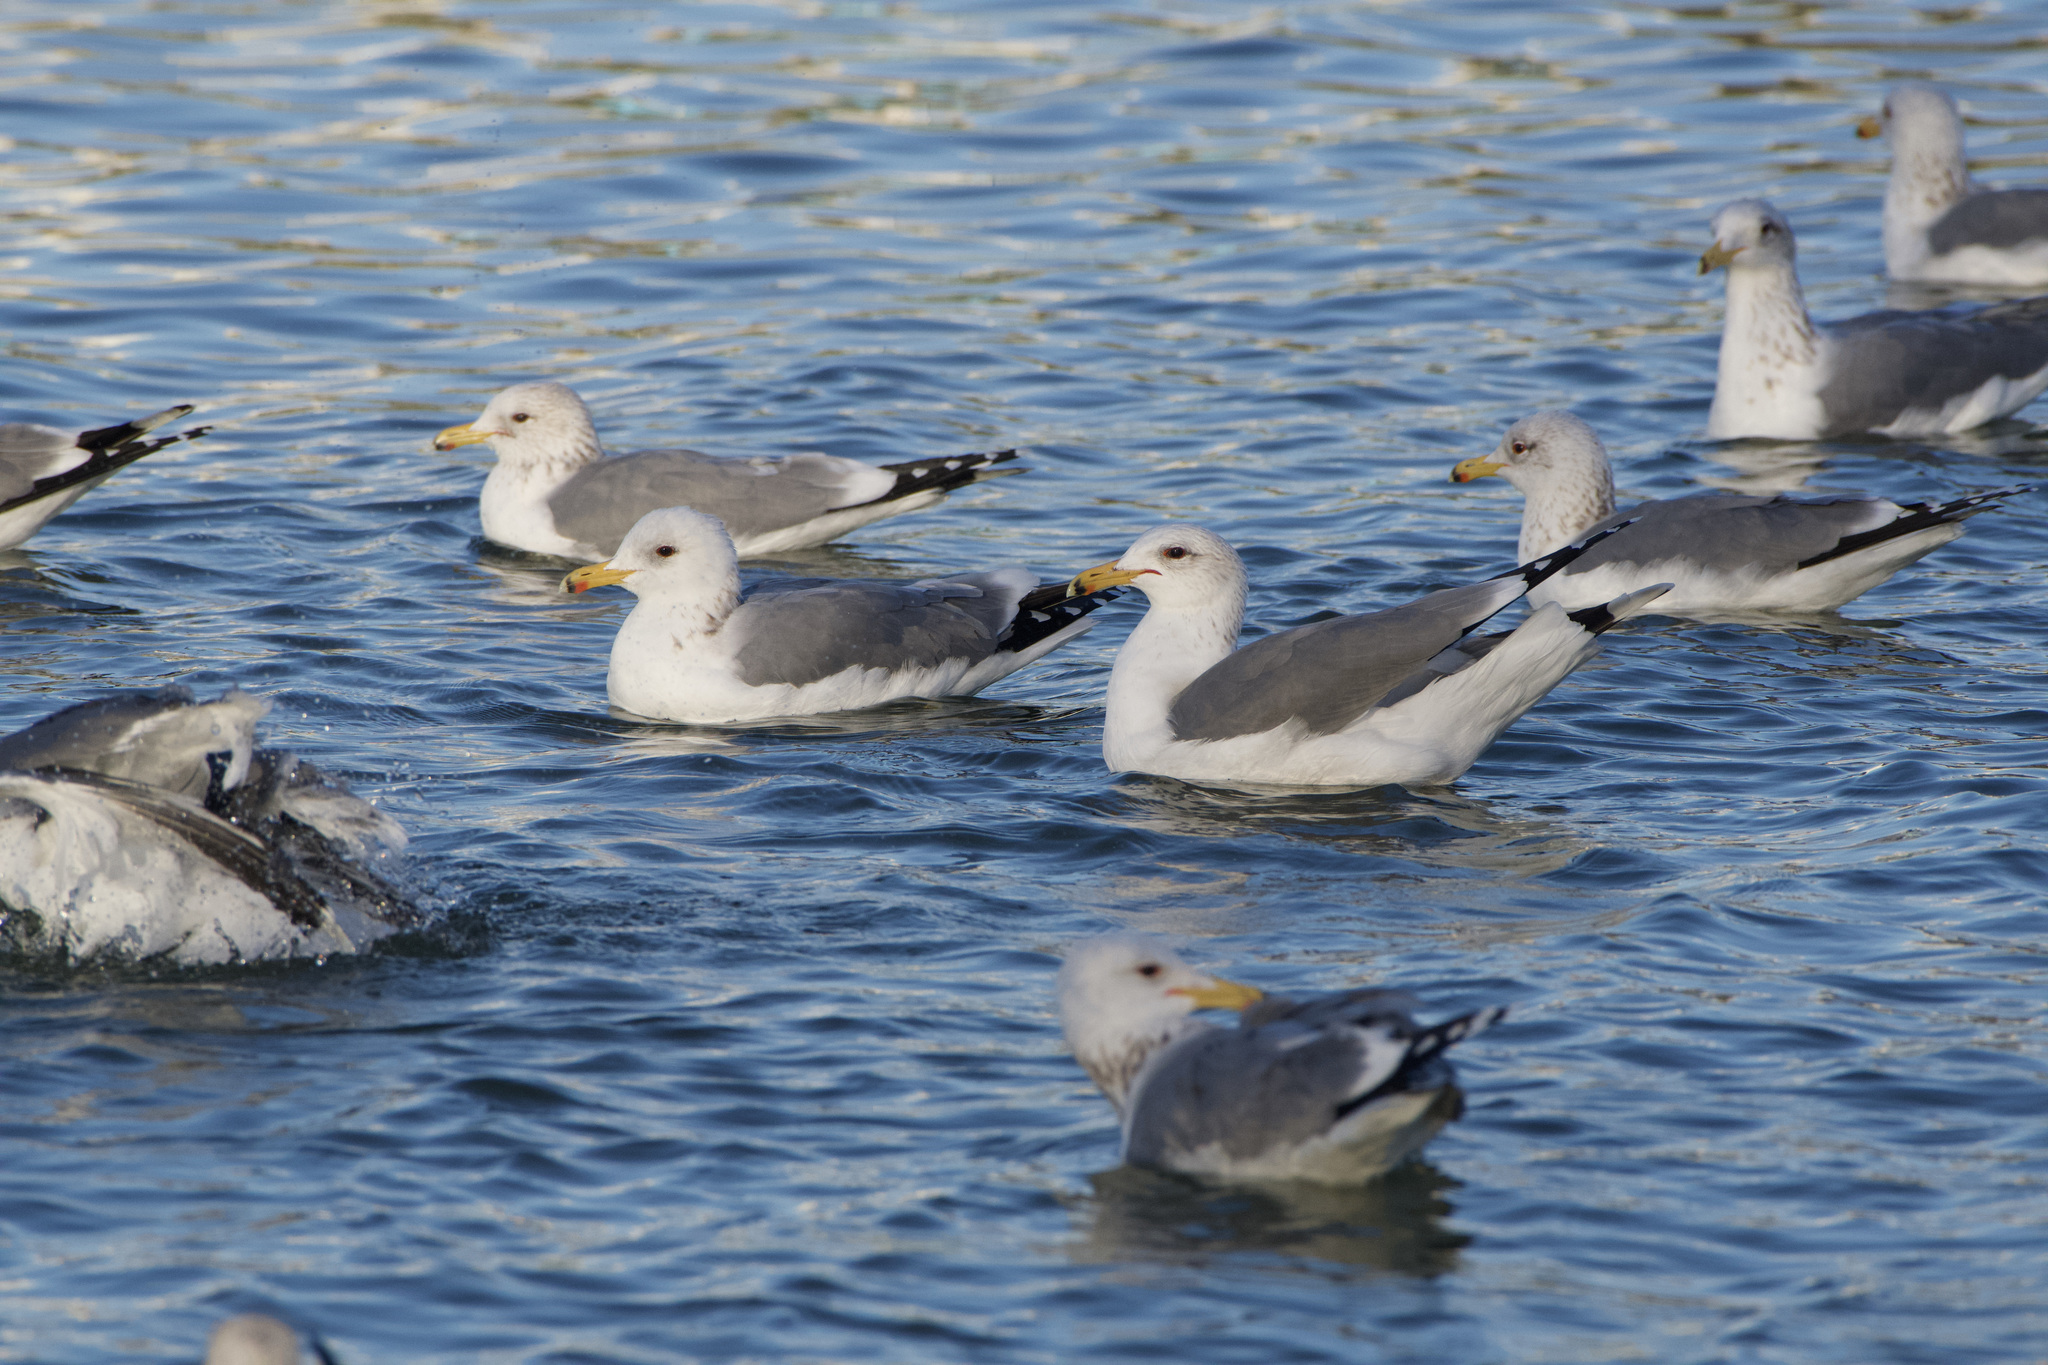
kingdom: Animalia
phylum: Chordata
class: Aves
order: Charadriiformes
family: Laridae
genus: Larus
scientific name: Larus californicus
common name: California gull
